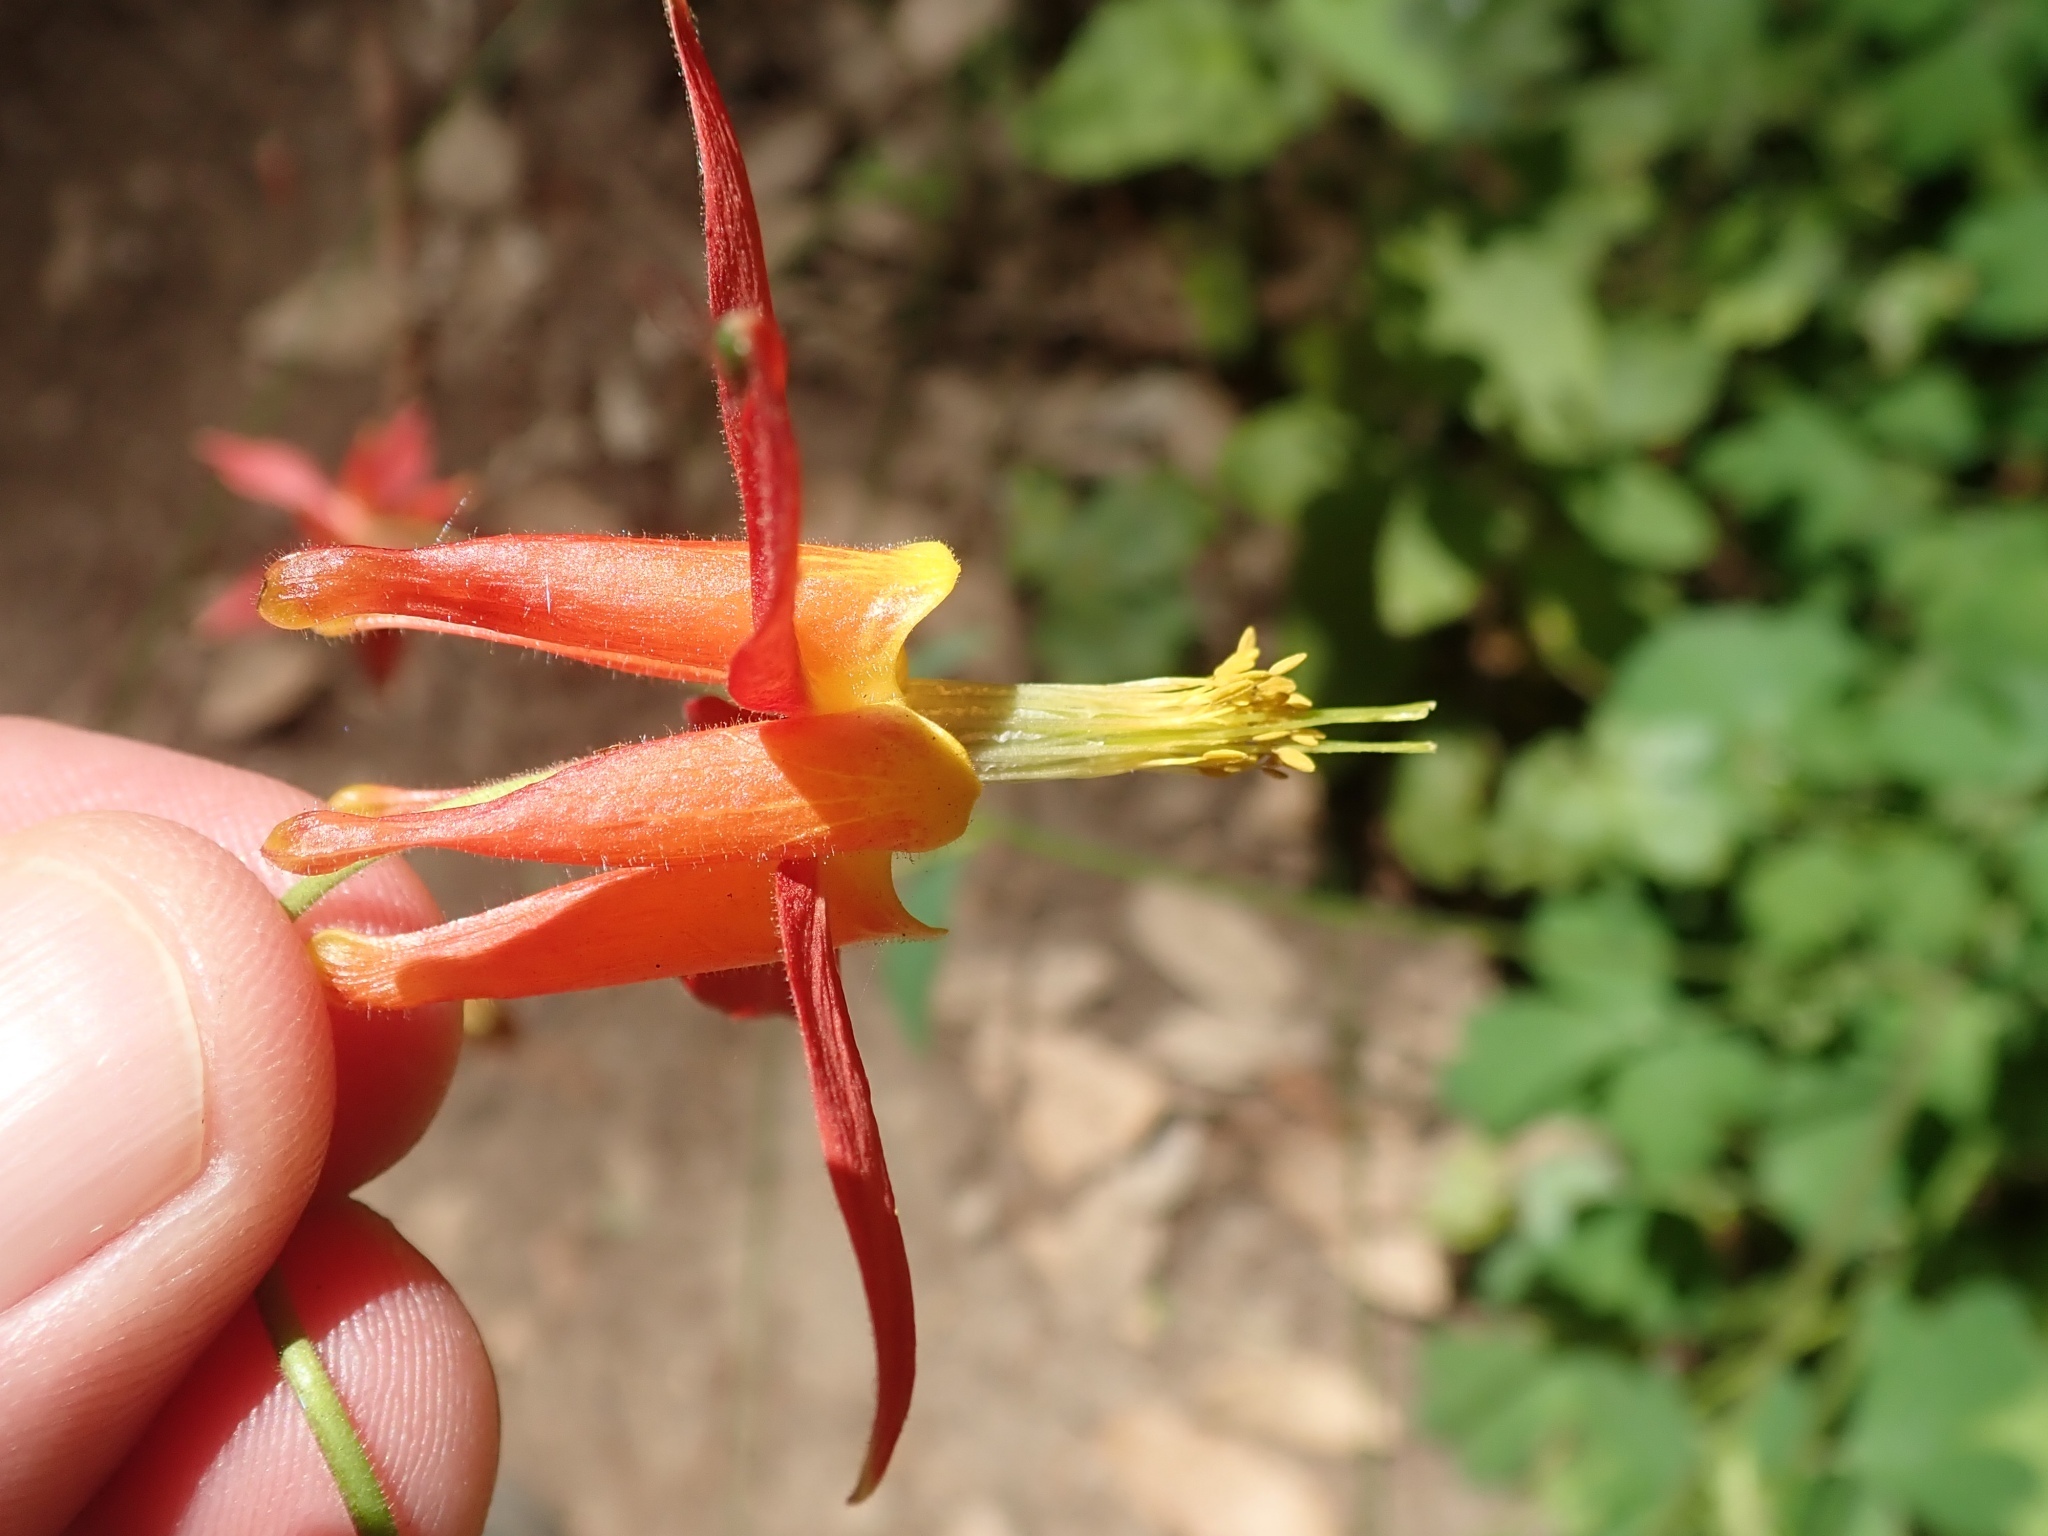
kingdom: Plantae
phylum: Tracheophyta
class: Magnoliopsida
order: Ranunculales
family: Ranunculaceae
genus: Aquilegia
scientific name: Aquilegia formosa
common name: Sitka columbine
